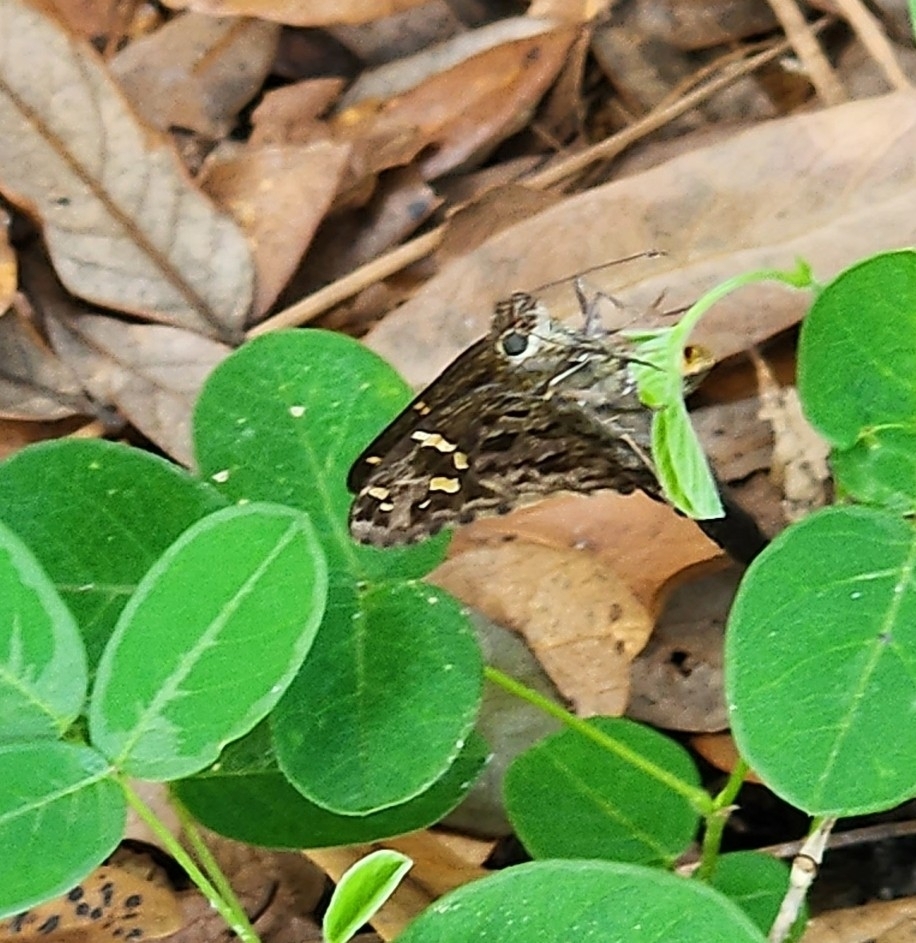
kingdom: Animalia
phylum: Arthropoda
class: Insecta
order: Lepidoptera
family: Hesperiidae
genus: Thorybes
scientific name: Thorybes
